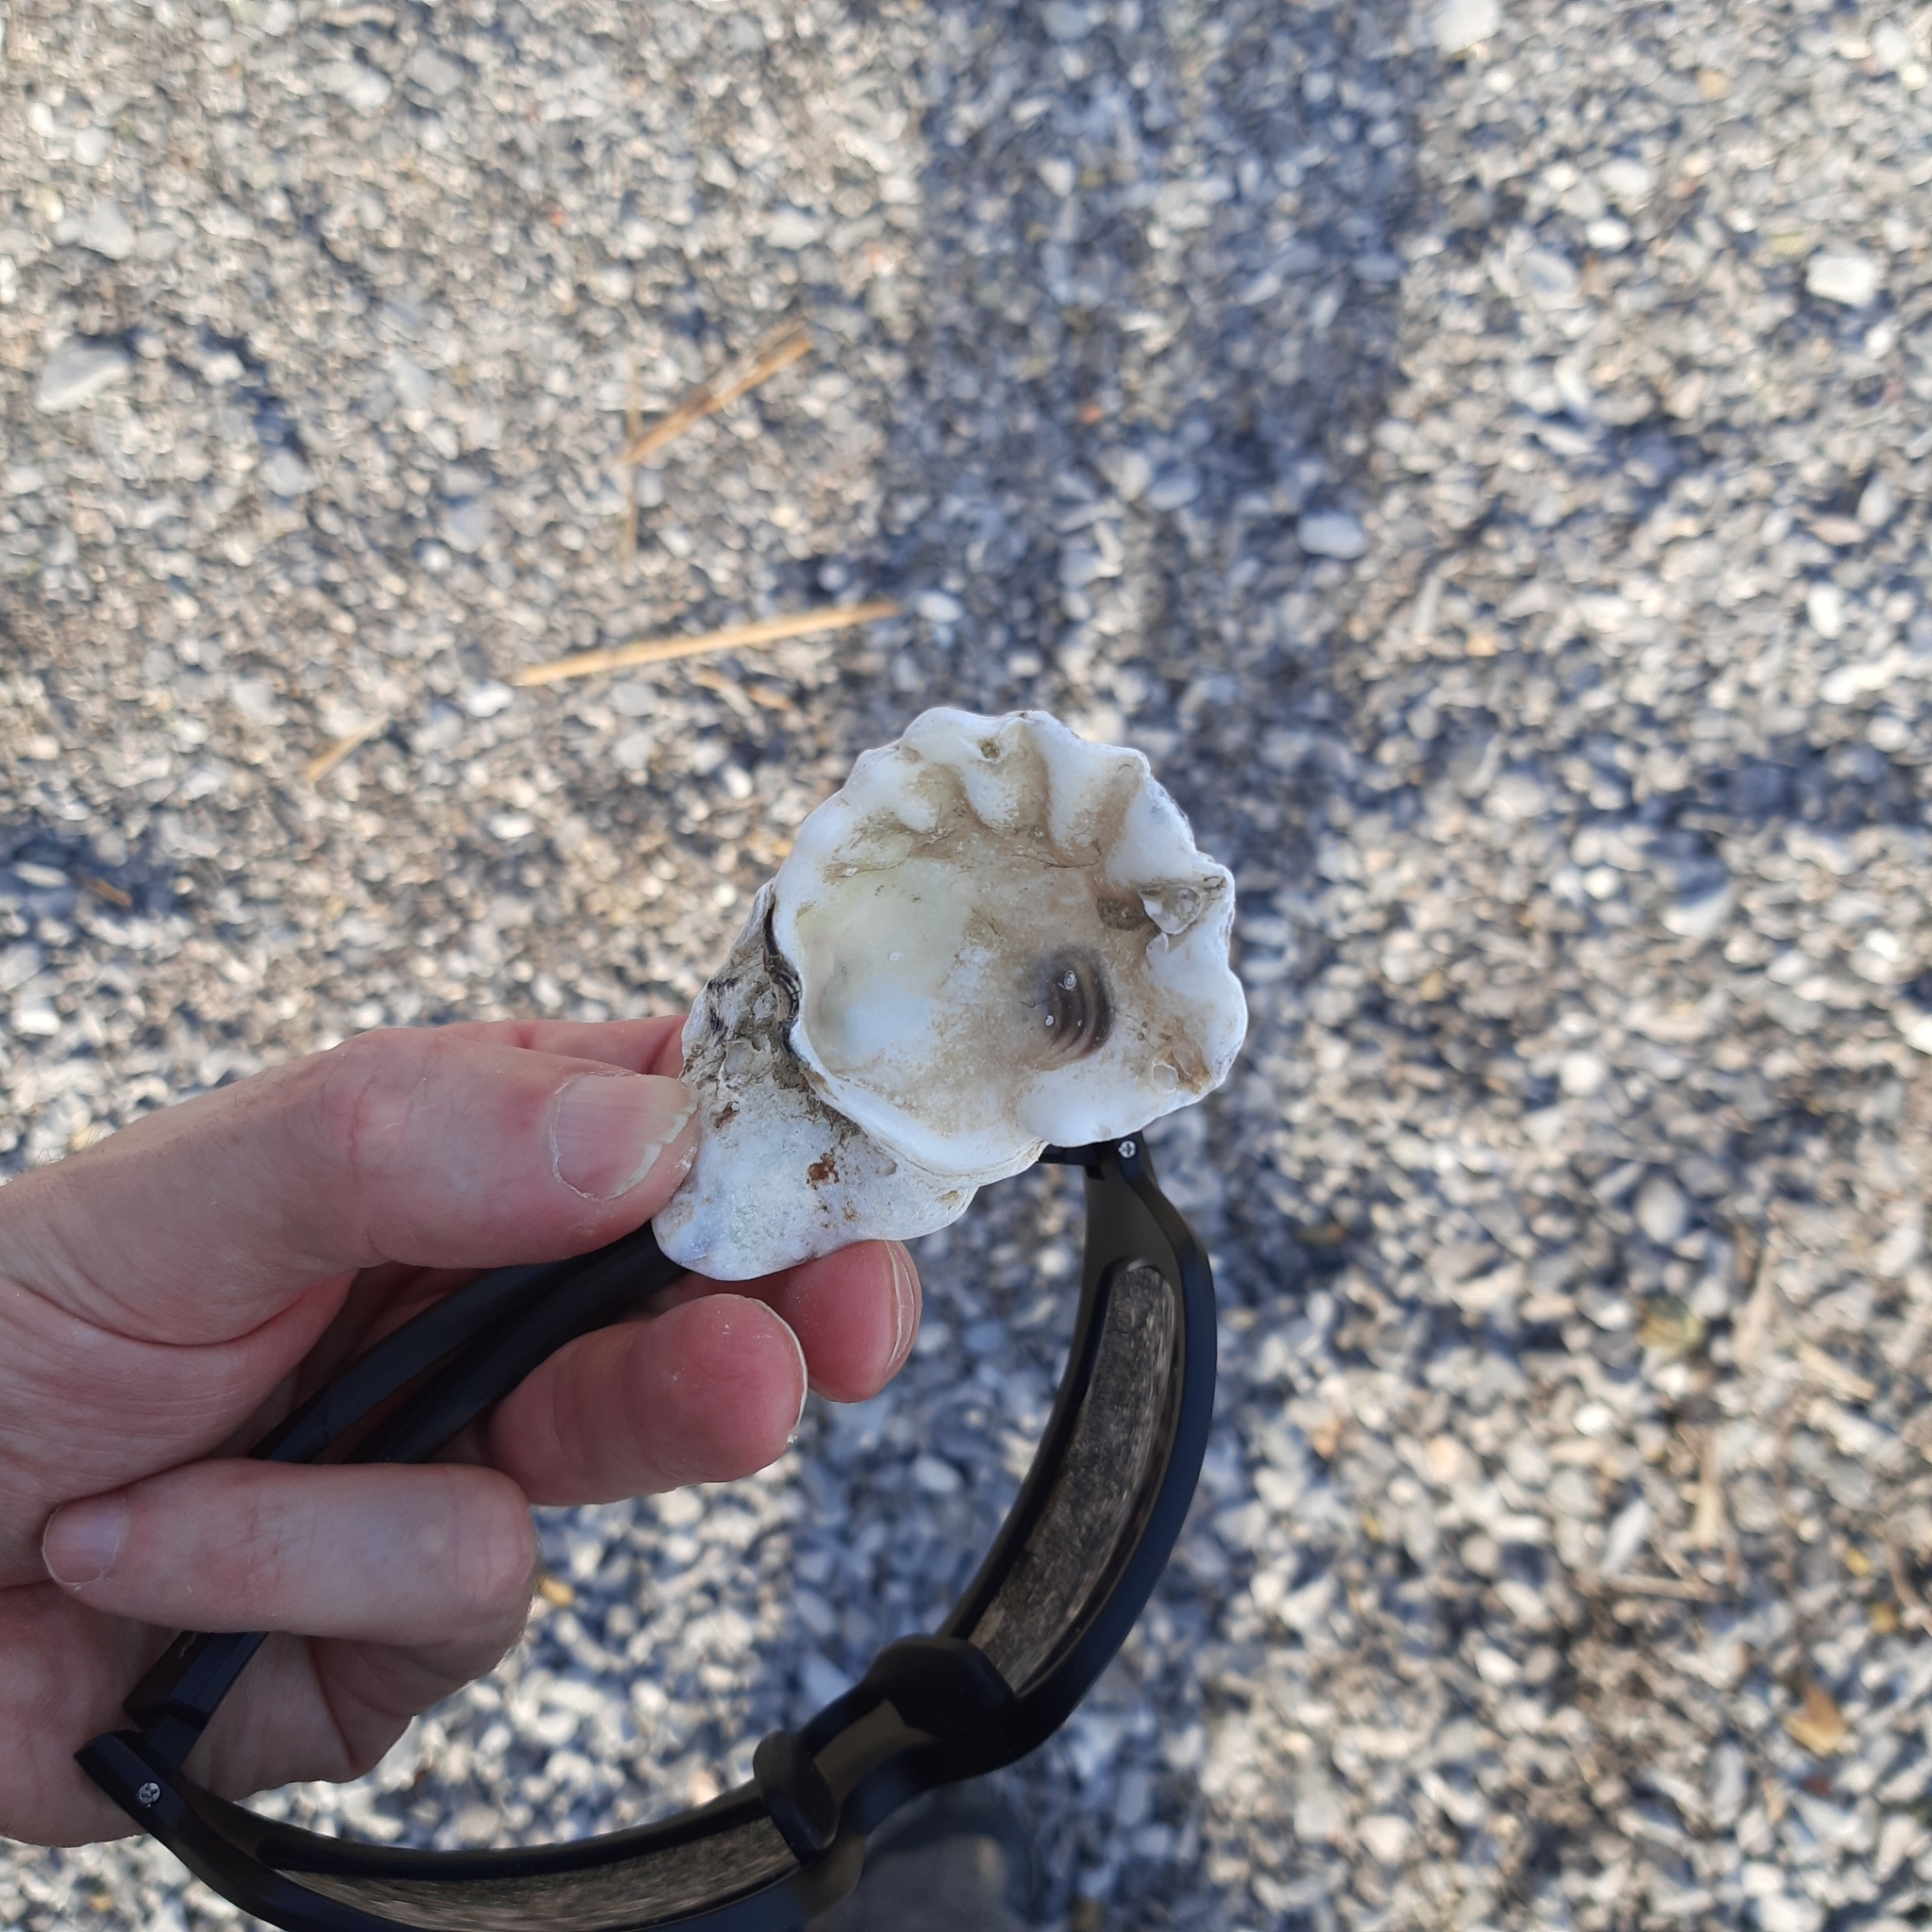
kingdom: Animalia
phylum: Mollusca
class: Bivalvia
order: Ostreida
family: Ostreidae
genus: Magallana
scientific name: Magallana gigas
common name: Pacific oyster
